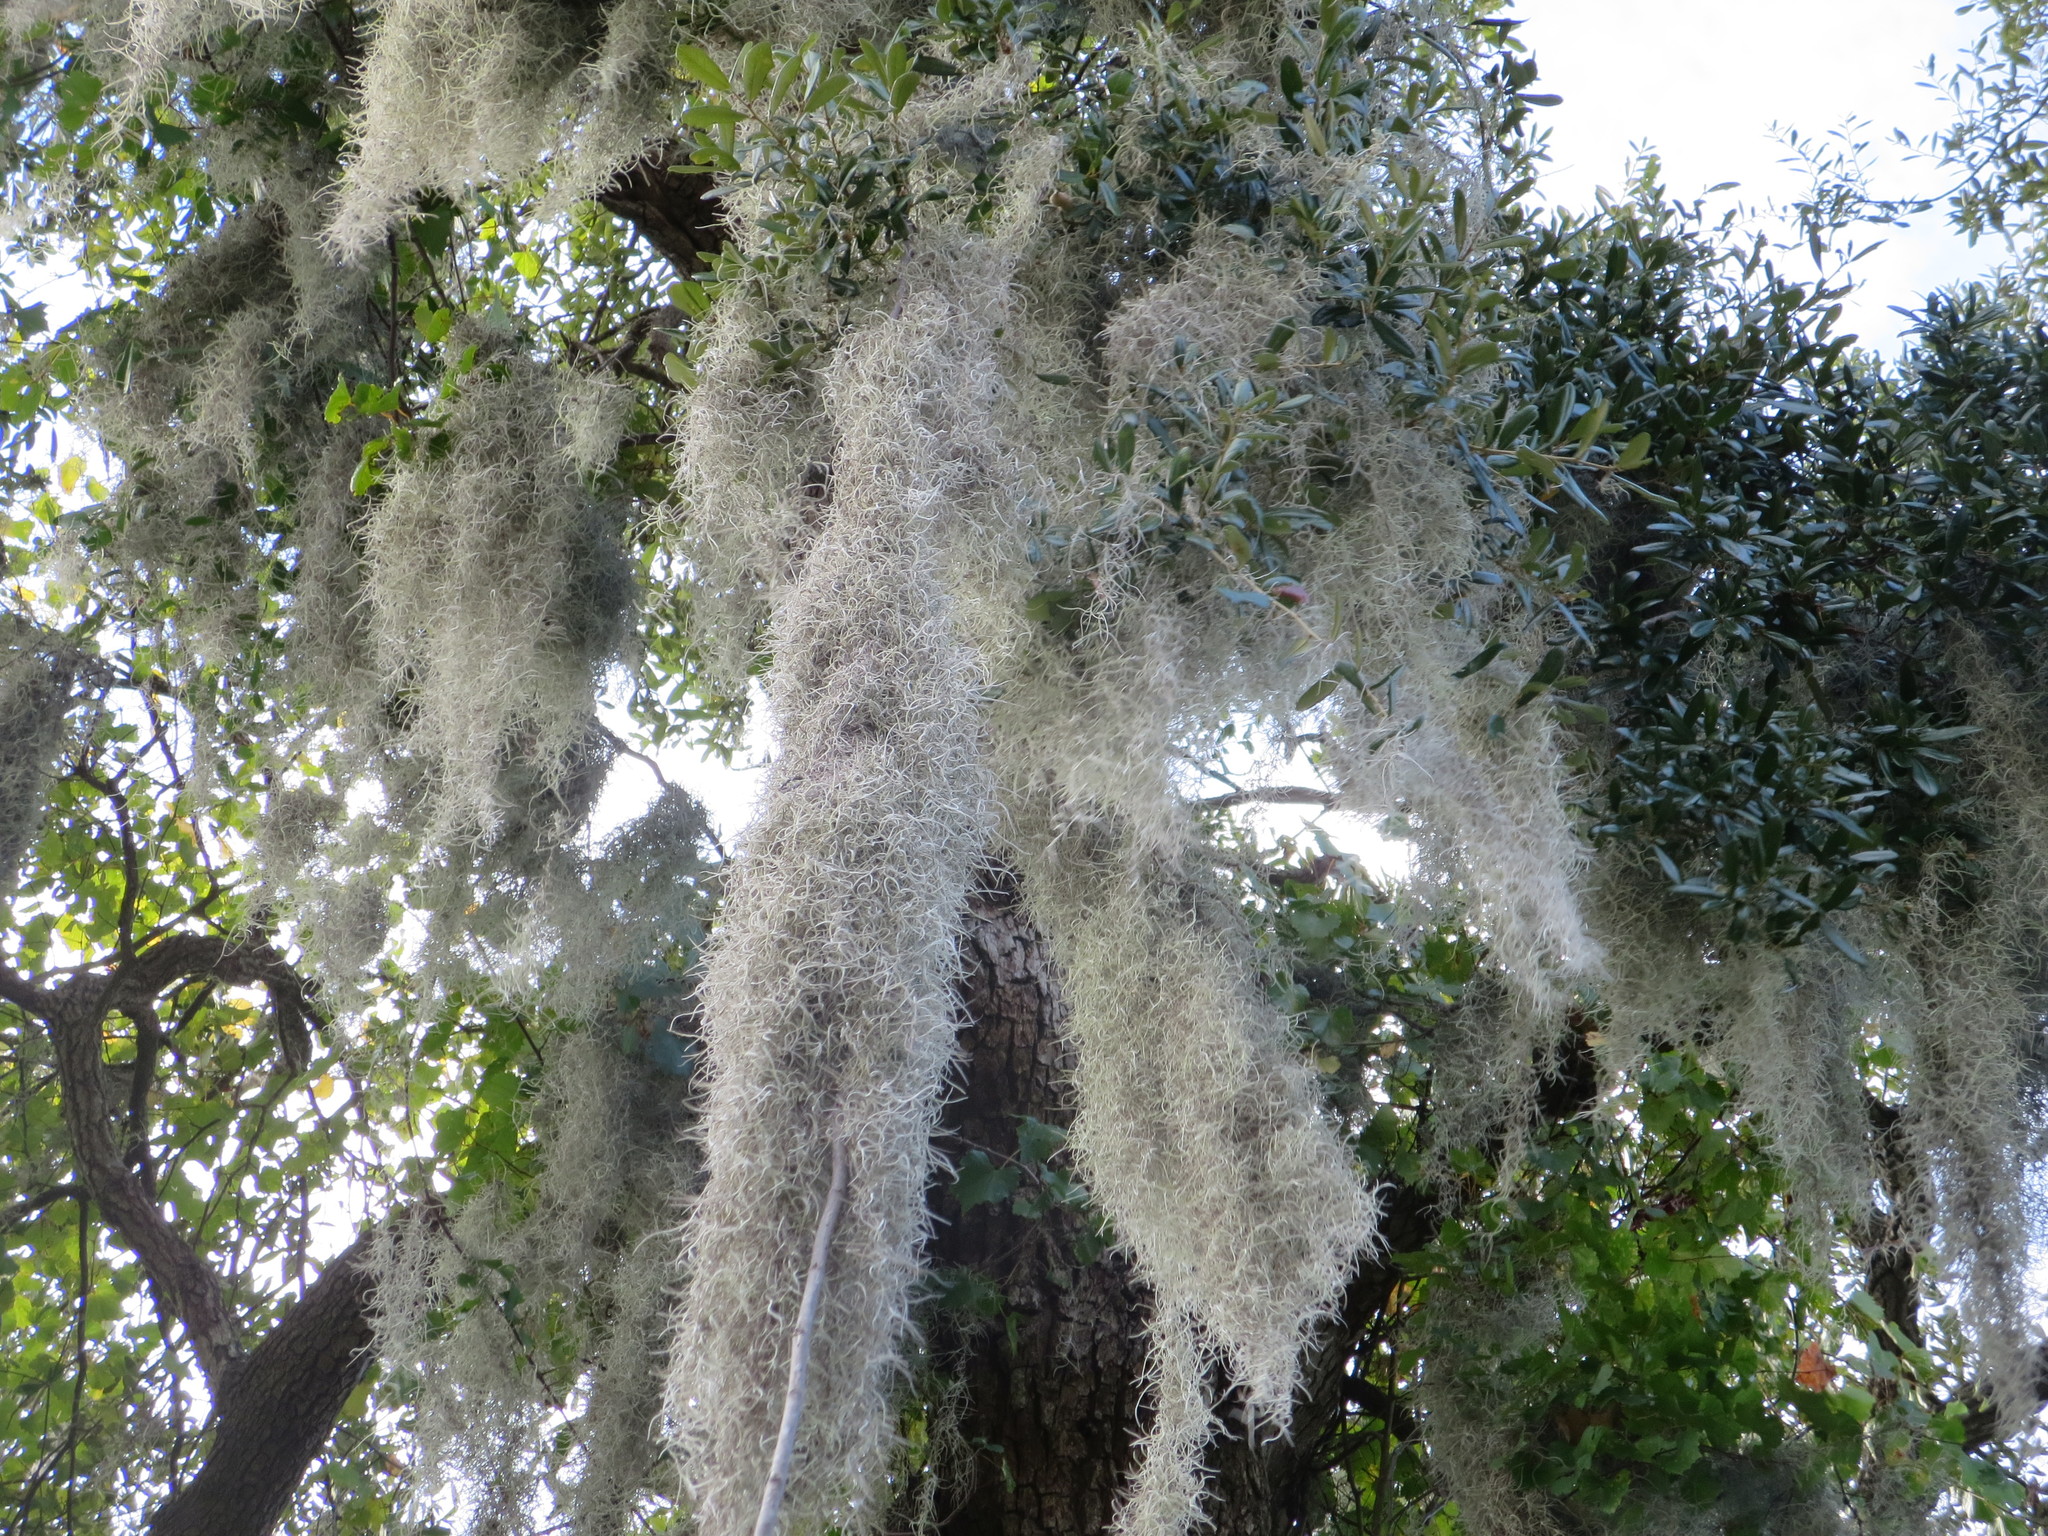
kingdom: Plantae
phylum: Tracheophyta
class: Liliopsida
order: Poales
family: Bromeliaceae
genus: Tillandsia
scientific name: Tillandsia usneoides
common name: Spanish moss
